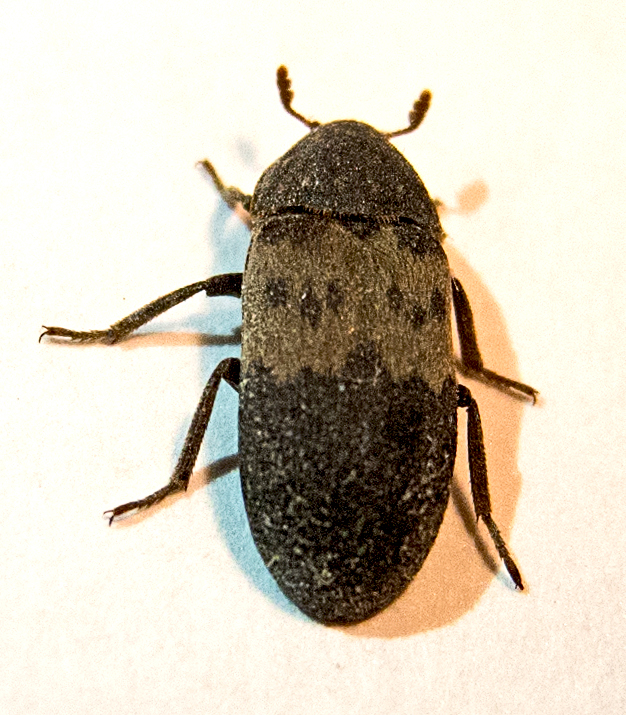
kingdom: Animalia
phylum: Arthropoda
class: Insecta
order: Coleoptera
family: Dermestidae
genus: Dermestes
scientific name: Dermestes lardarius
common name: Larder beetle
